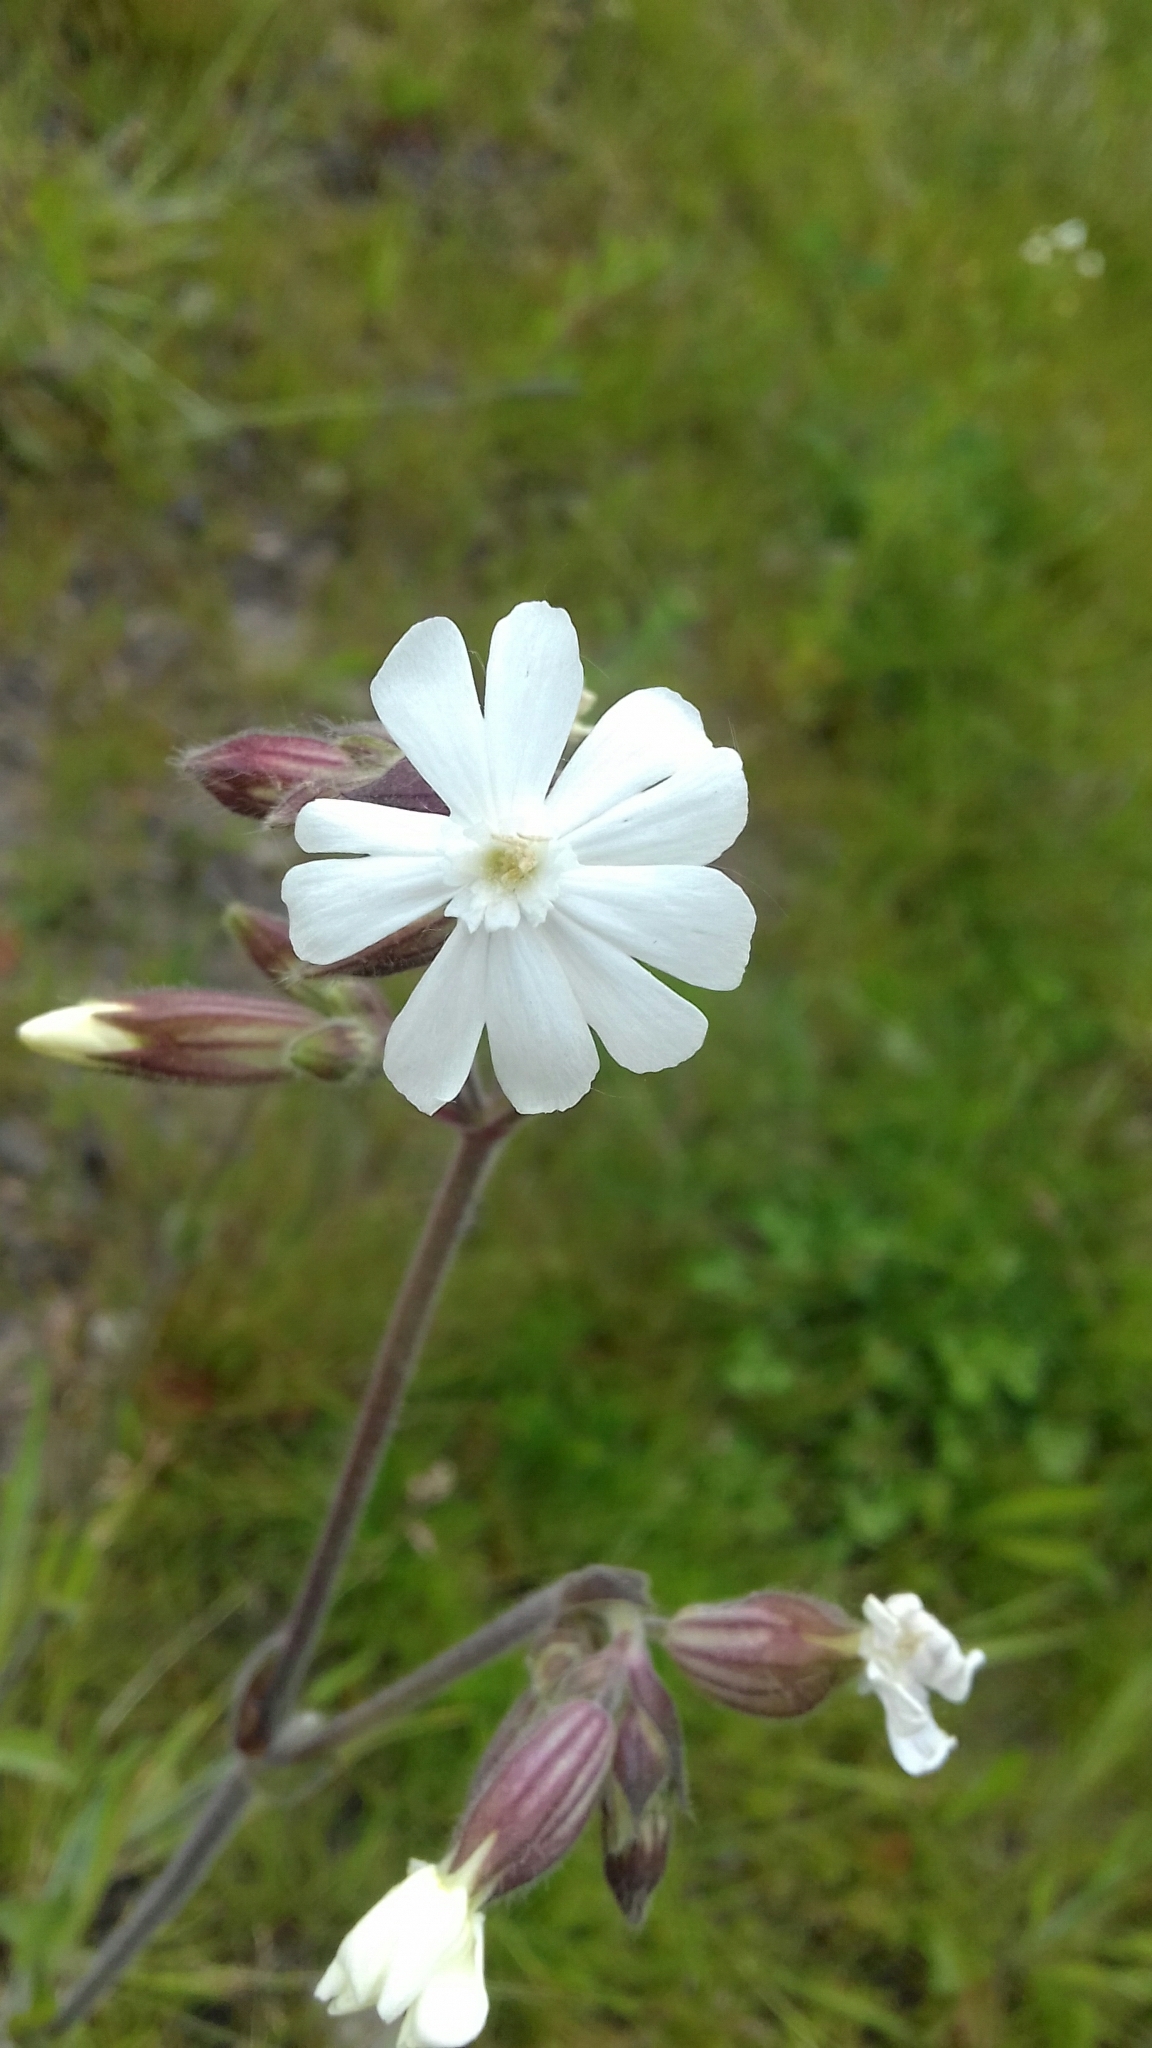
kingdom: Plantae
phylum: Tracheophyta
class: Magnoliopsida
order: Caryophyllales
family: Caryophyllaceae
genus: Silene
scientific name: Silene latifolia
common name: White campion
